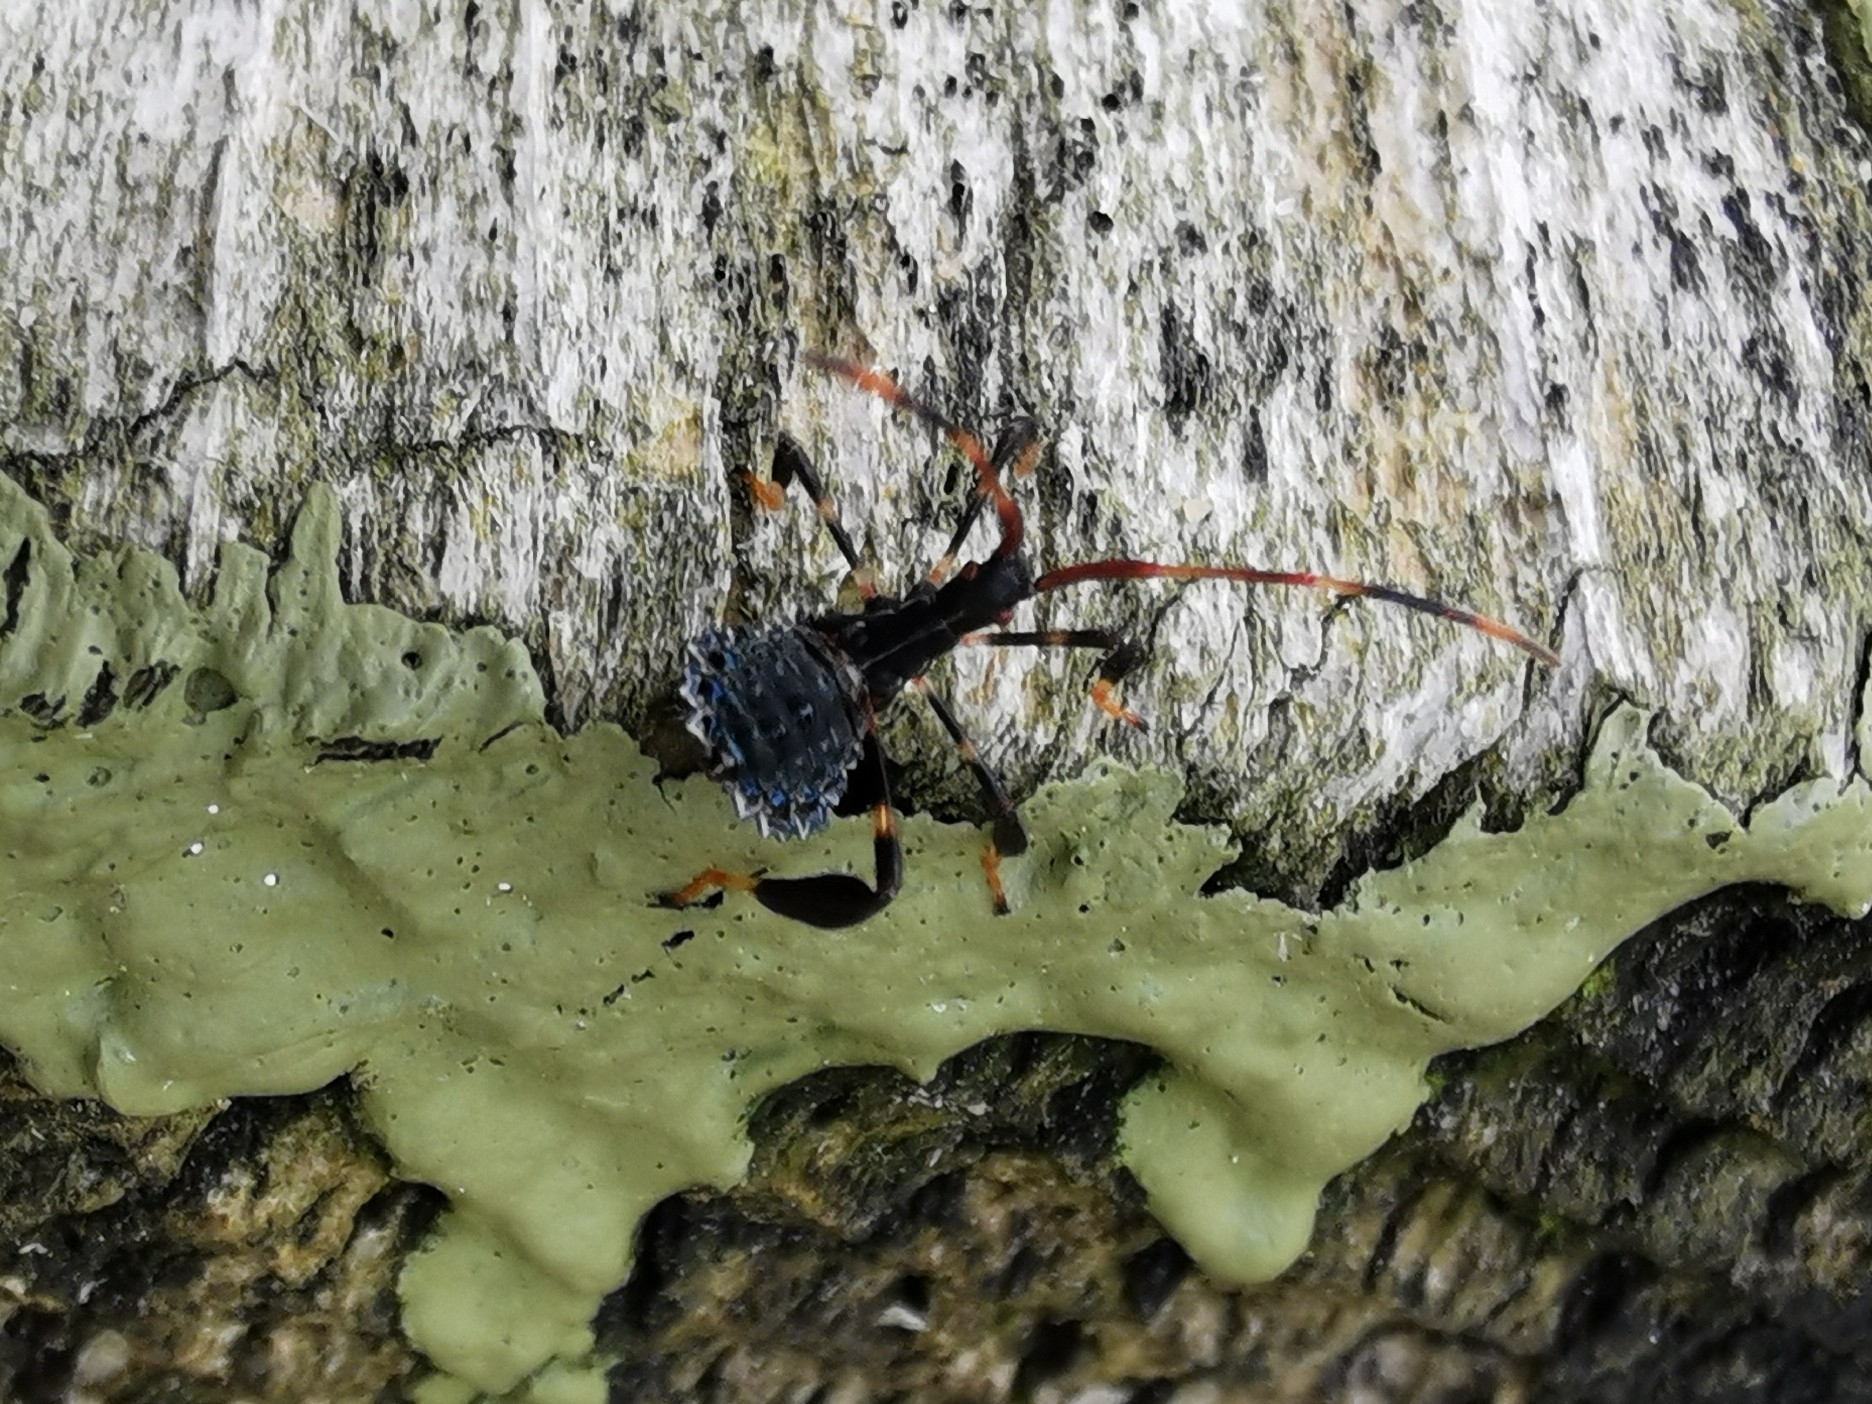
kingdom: Animalia
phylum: Arthropoda
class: Insecta
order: Hemiptera
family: Coreidae
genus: Acanthocephala
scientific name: Acanthocephala terminalis
